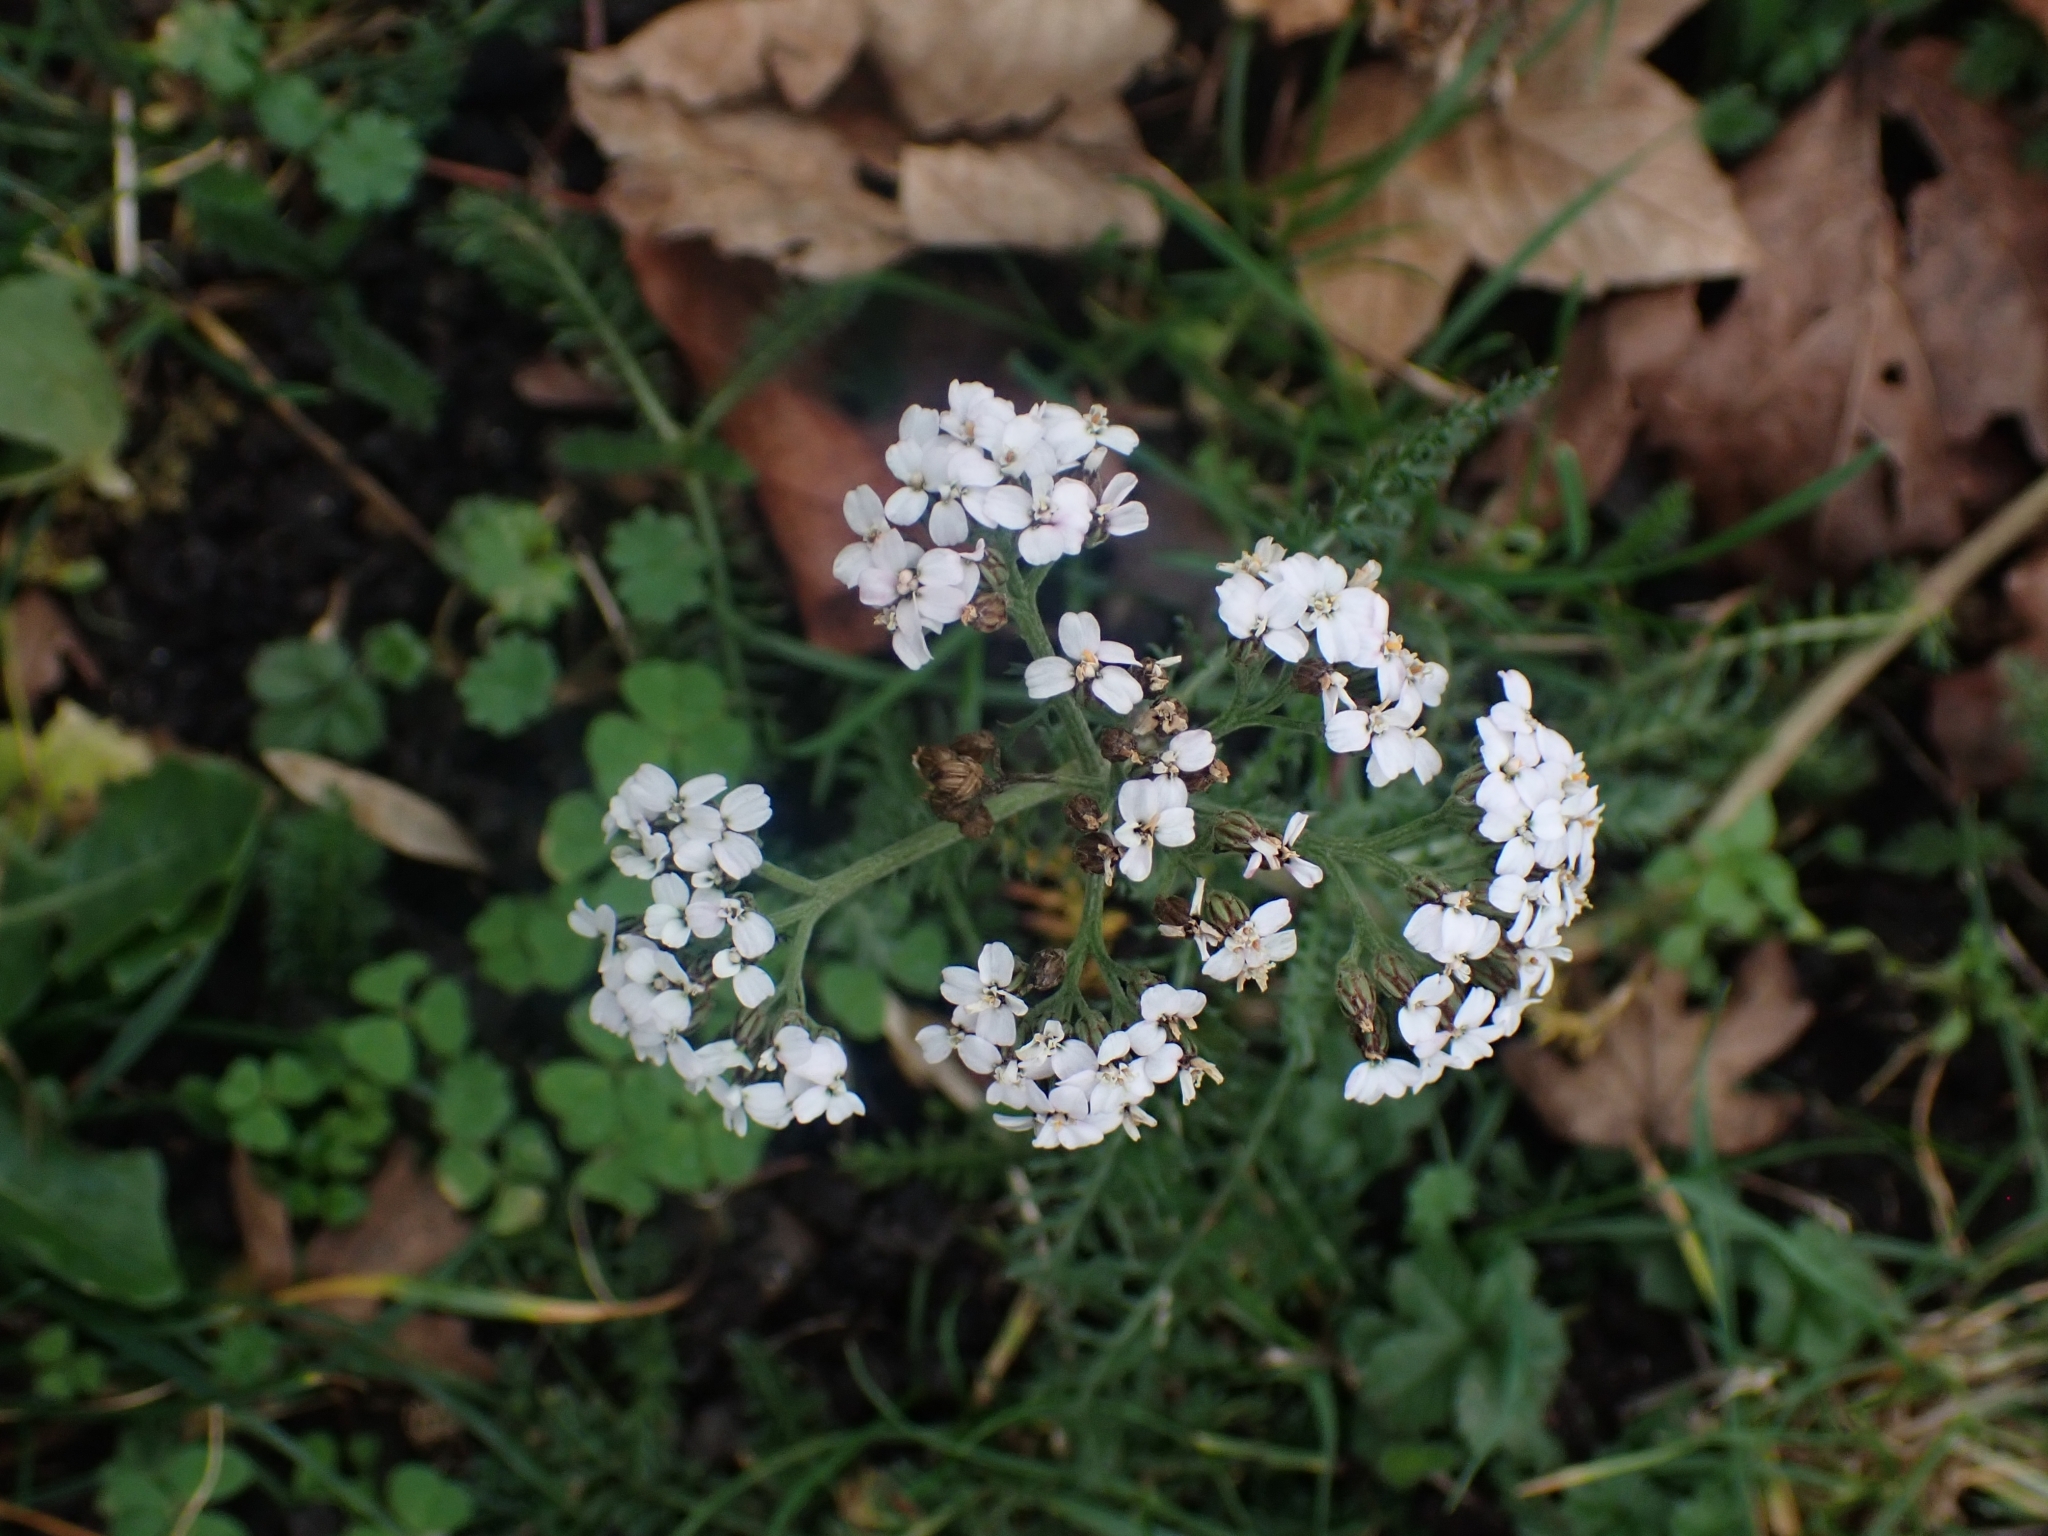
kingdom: Plantae
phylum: Tracheophyta
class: Magnoliopsida
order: Asterales
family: Asteraceae
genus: Achillea
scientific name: Achillea millefolium
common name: Yarrow
